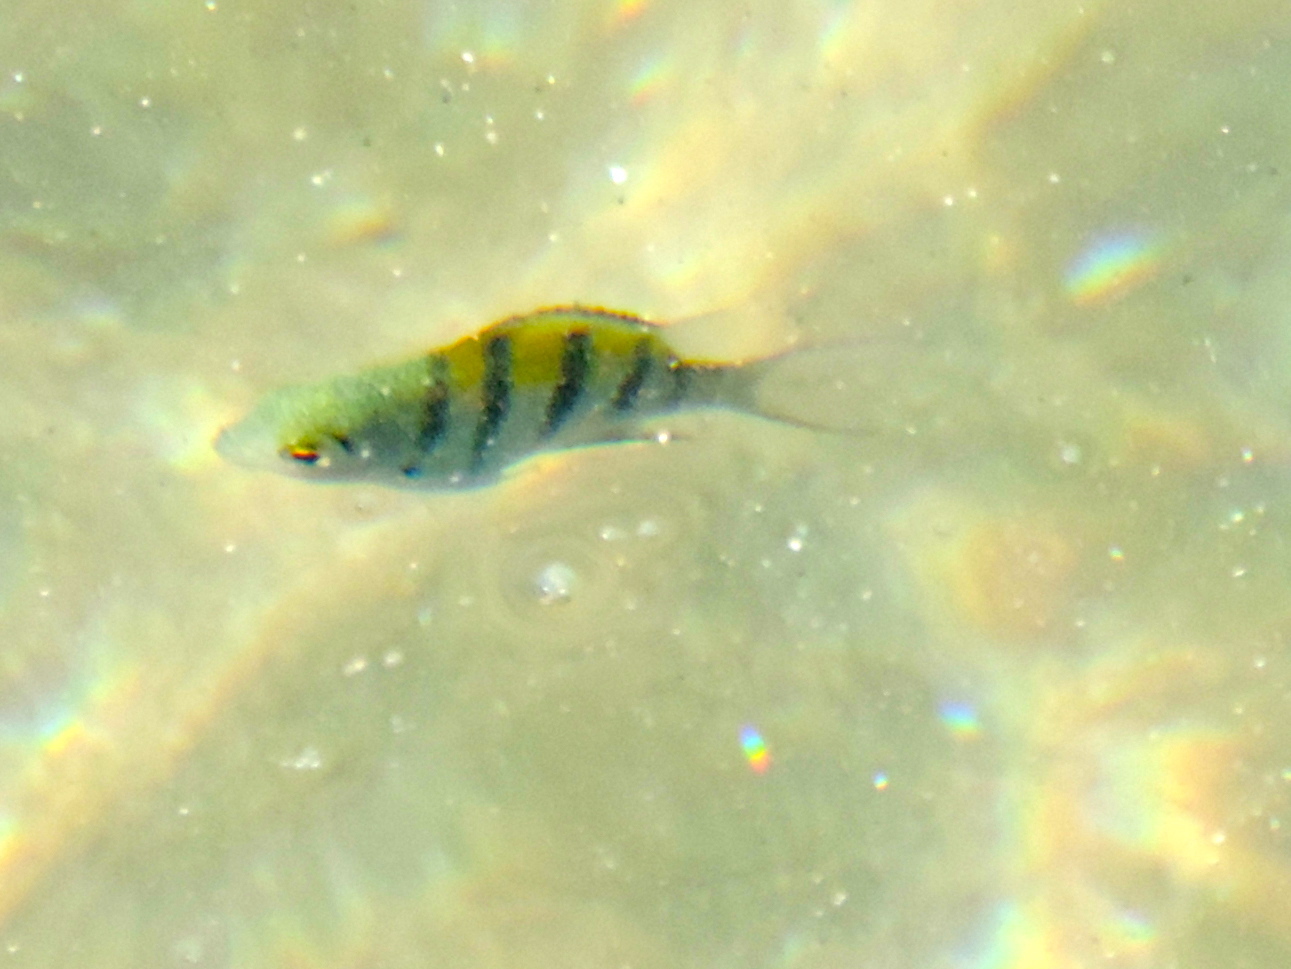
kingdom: Animalia
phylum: Chordata
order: Perciformes
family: Pomacentridae
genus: Abudefduf
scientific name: Abudefduf troschelii
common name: Panamic sergeant major
